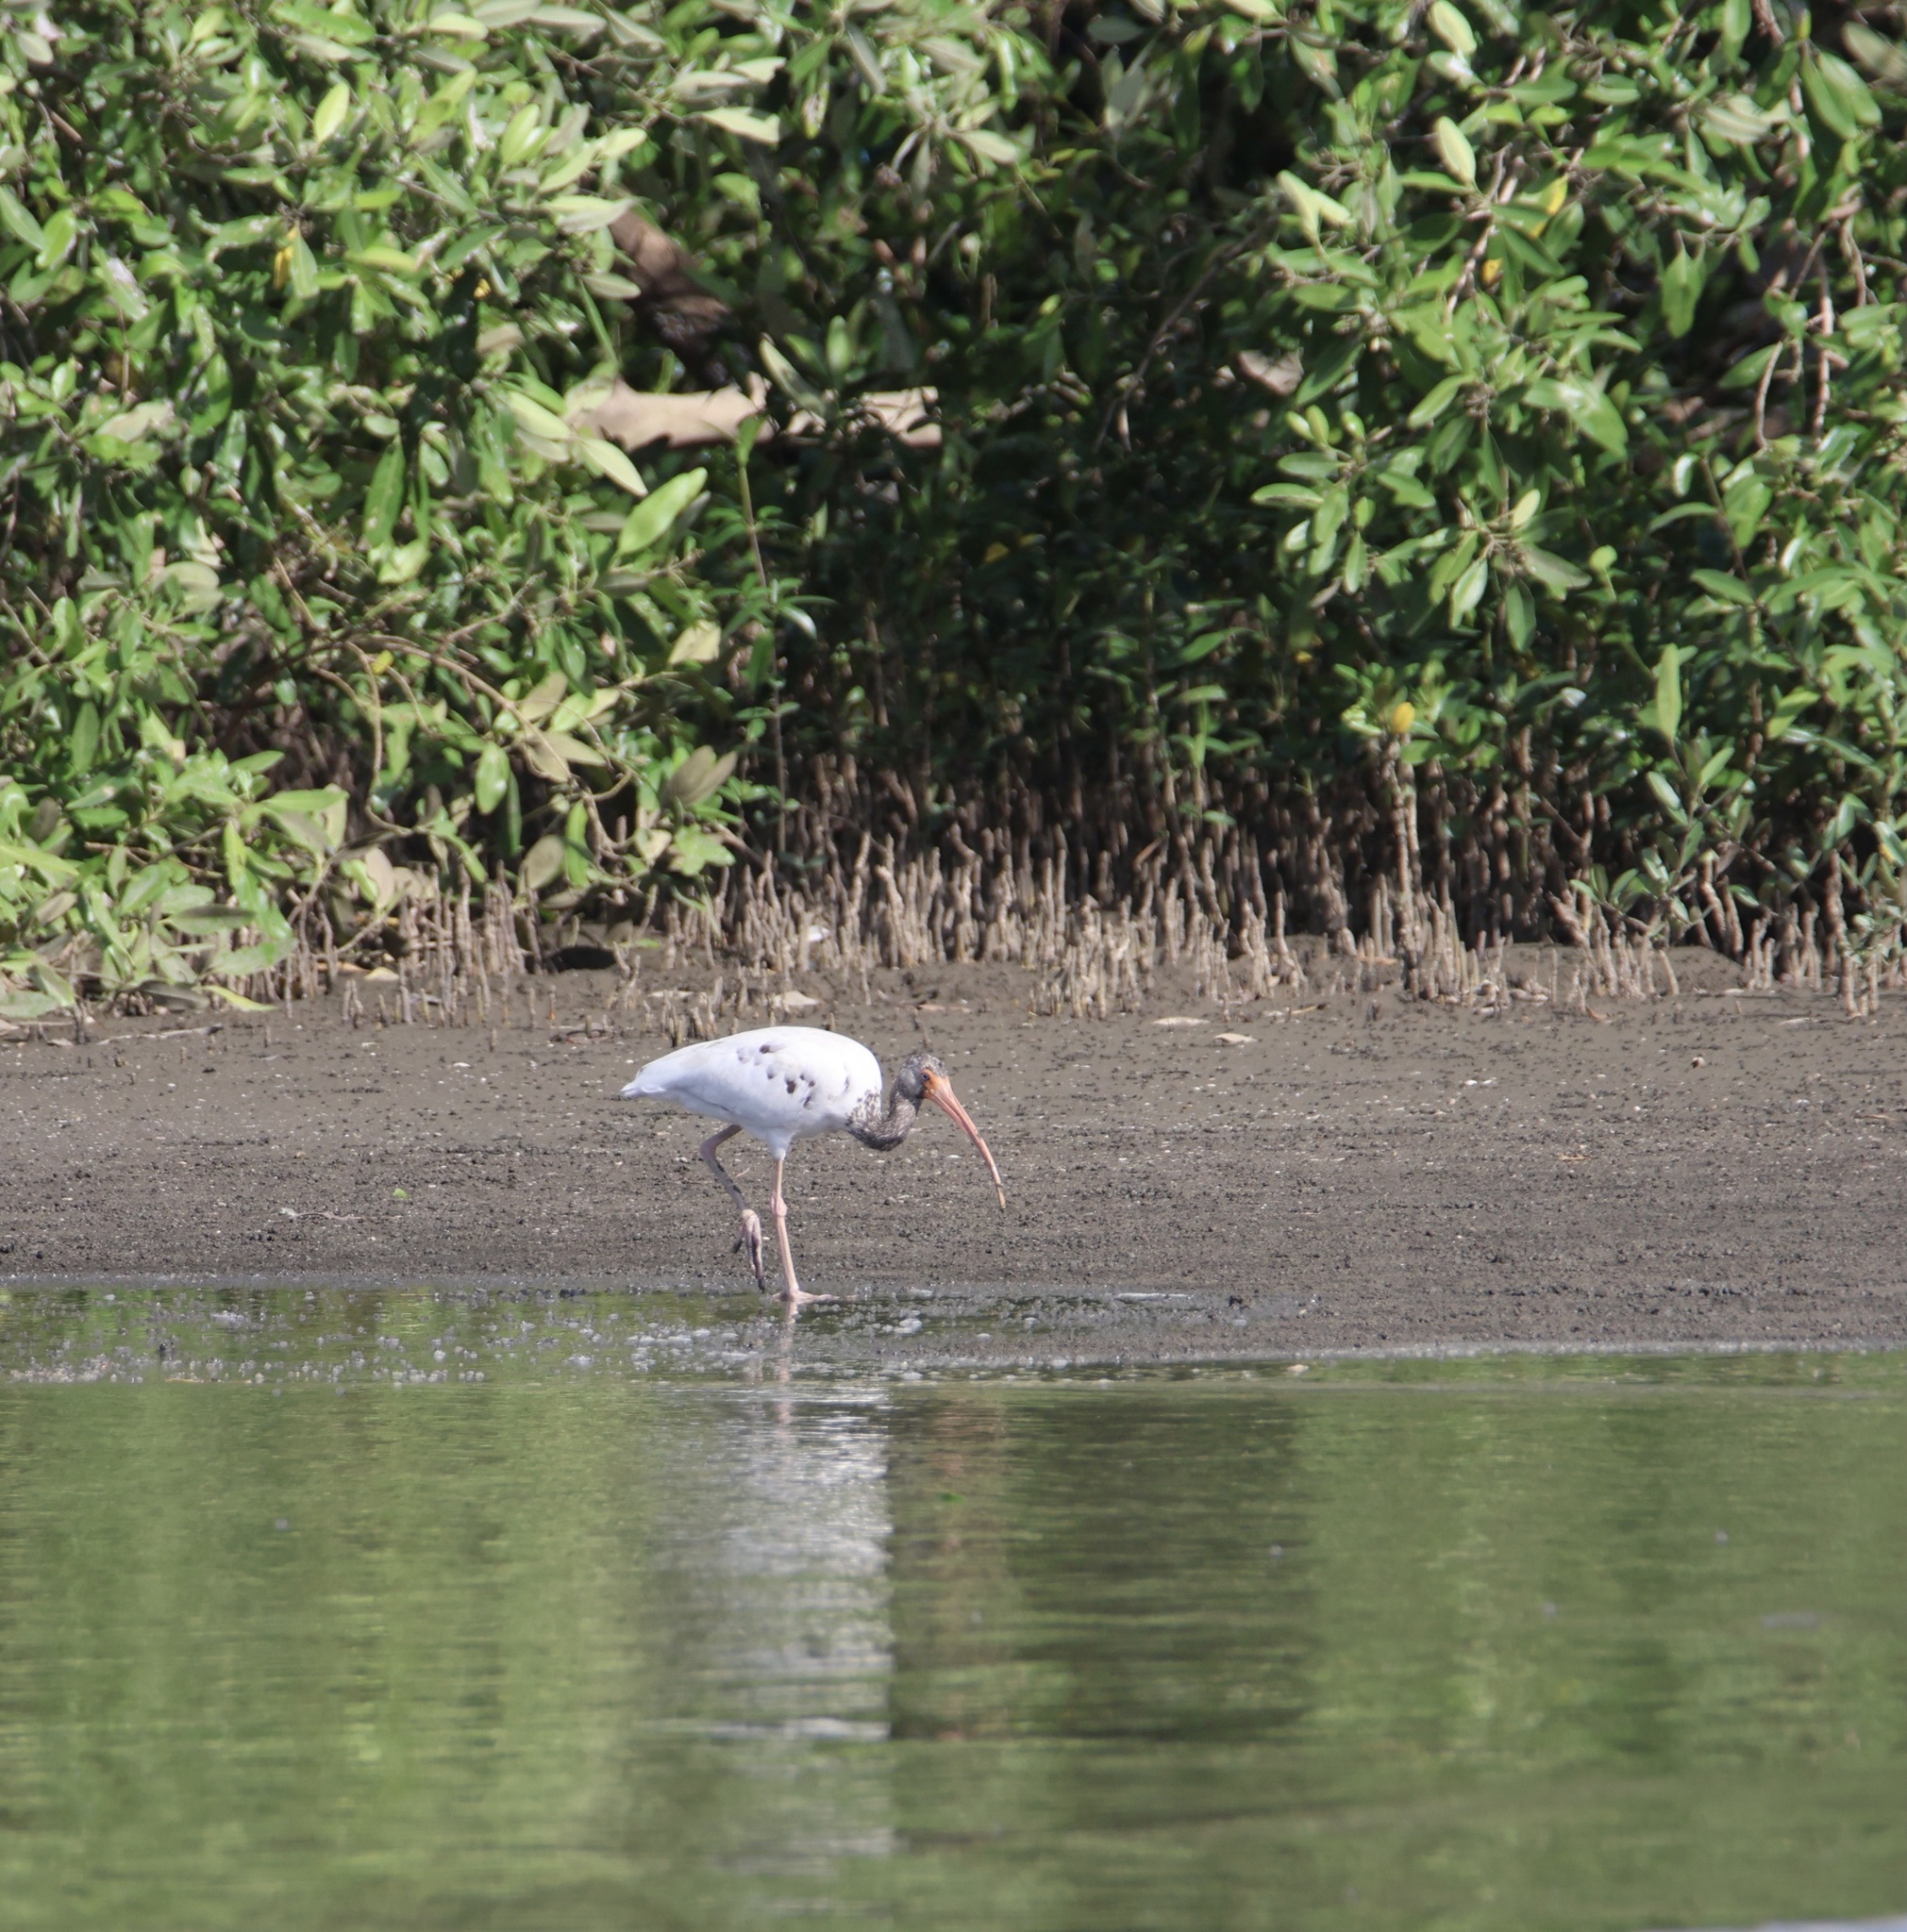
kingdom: Animalia
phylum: Chordata
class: Aves
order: Pelecaniformes
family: Threskiornithidae
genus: Eudocimus
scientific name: Eudocimus albus
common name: White ibis
